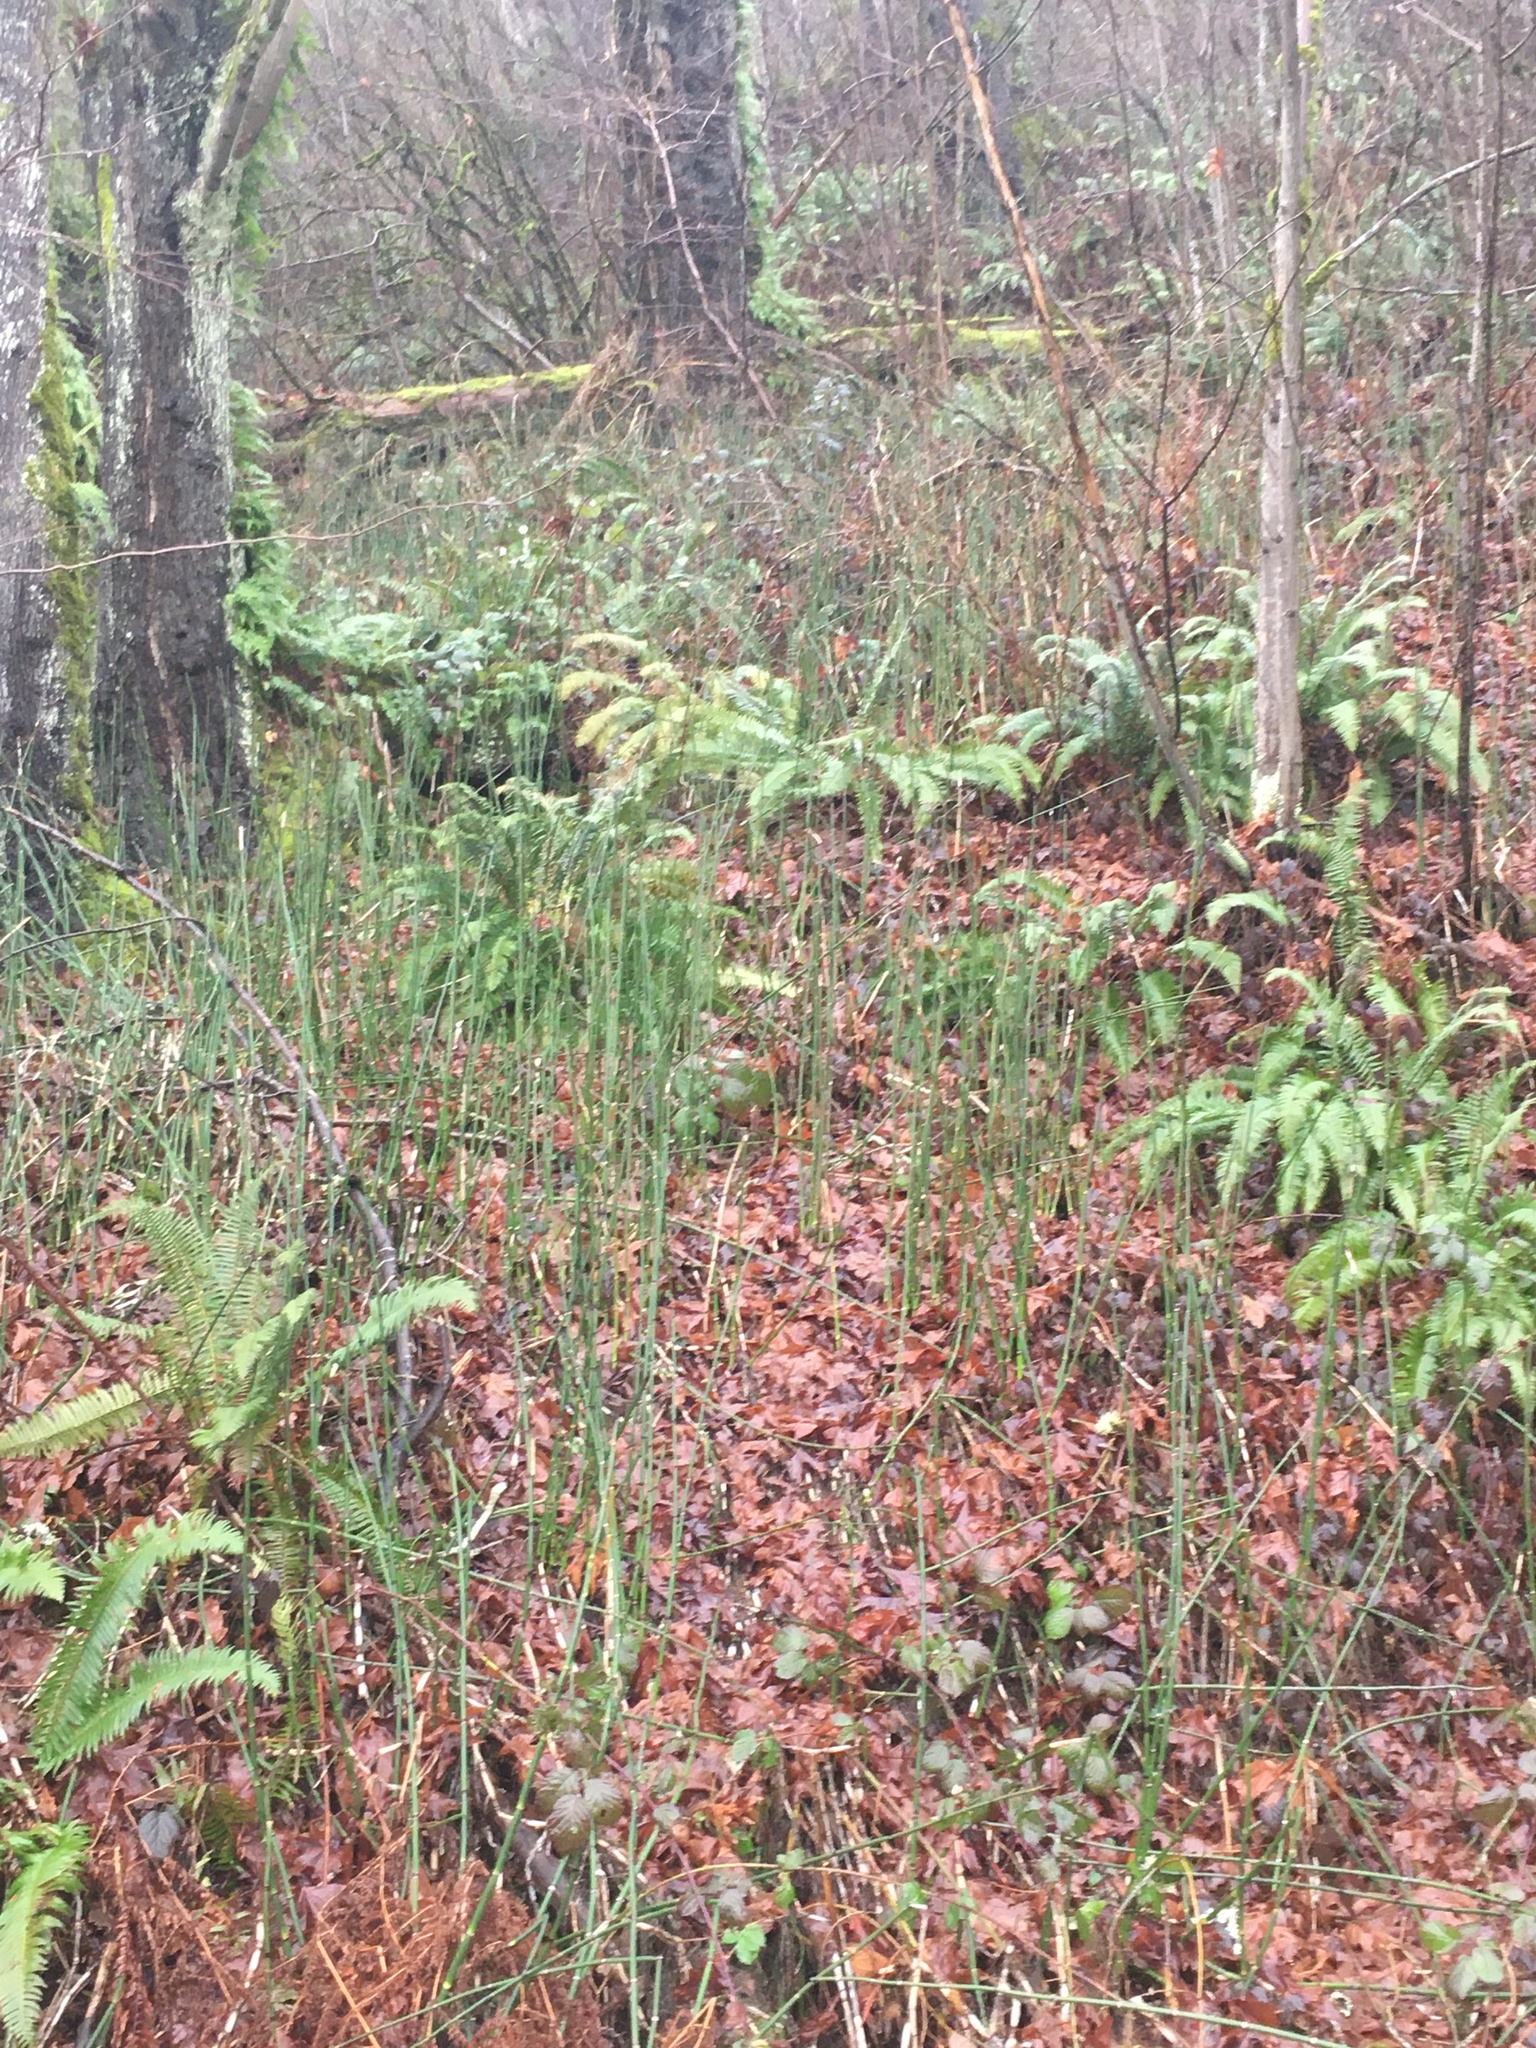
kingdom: Plantae
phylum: Tracheophyta
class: Polypodiopsida
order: Equisetales
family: Equisetaceae
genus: Equisetum
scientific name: Equisetum praealtum
